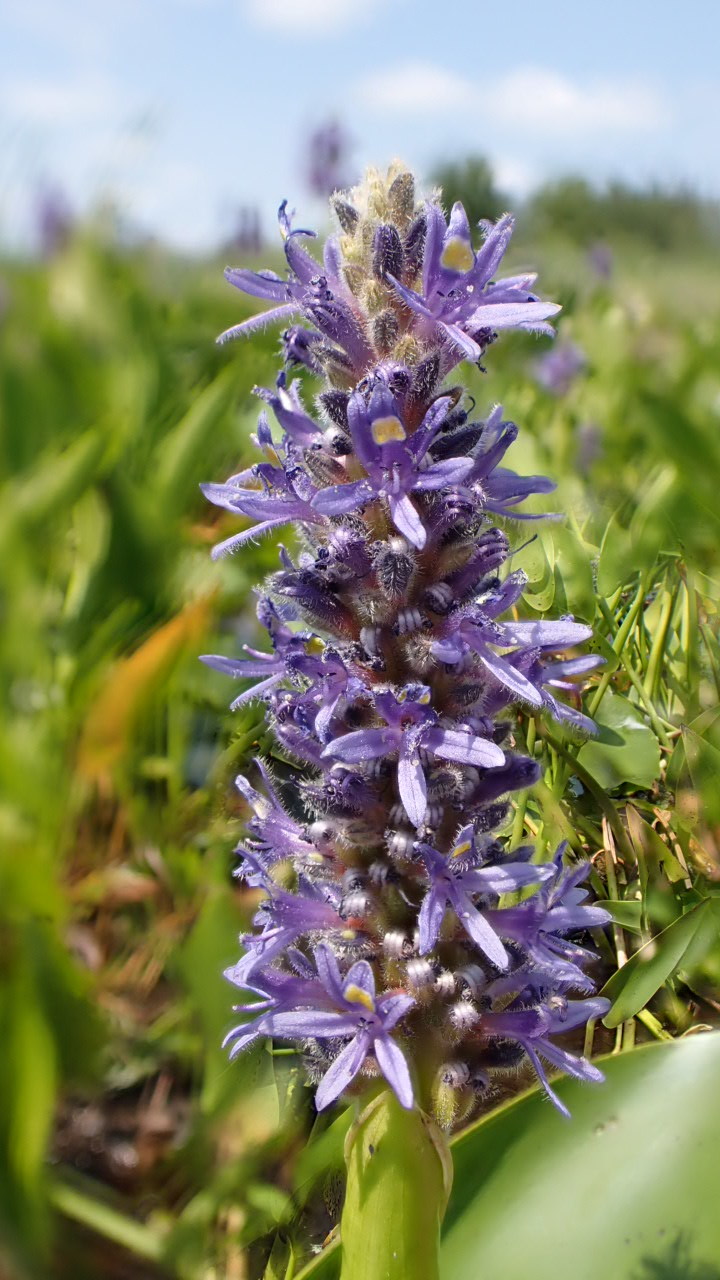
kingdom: Plantae
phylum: Tracheophyta
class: Liliopsida
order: Commelinales
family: Pontederiaceae
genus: Pontederia
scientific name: Pontederia cordata
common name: Pickerelweed
